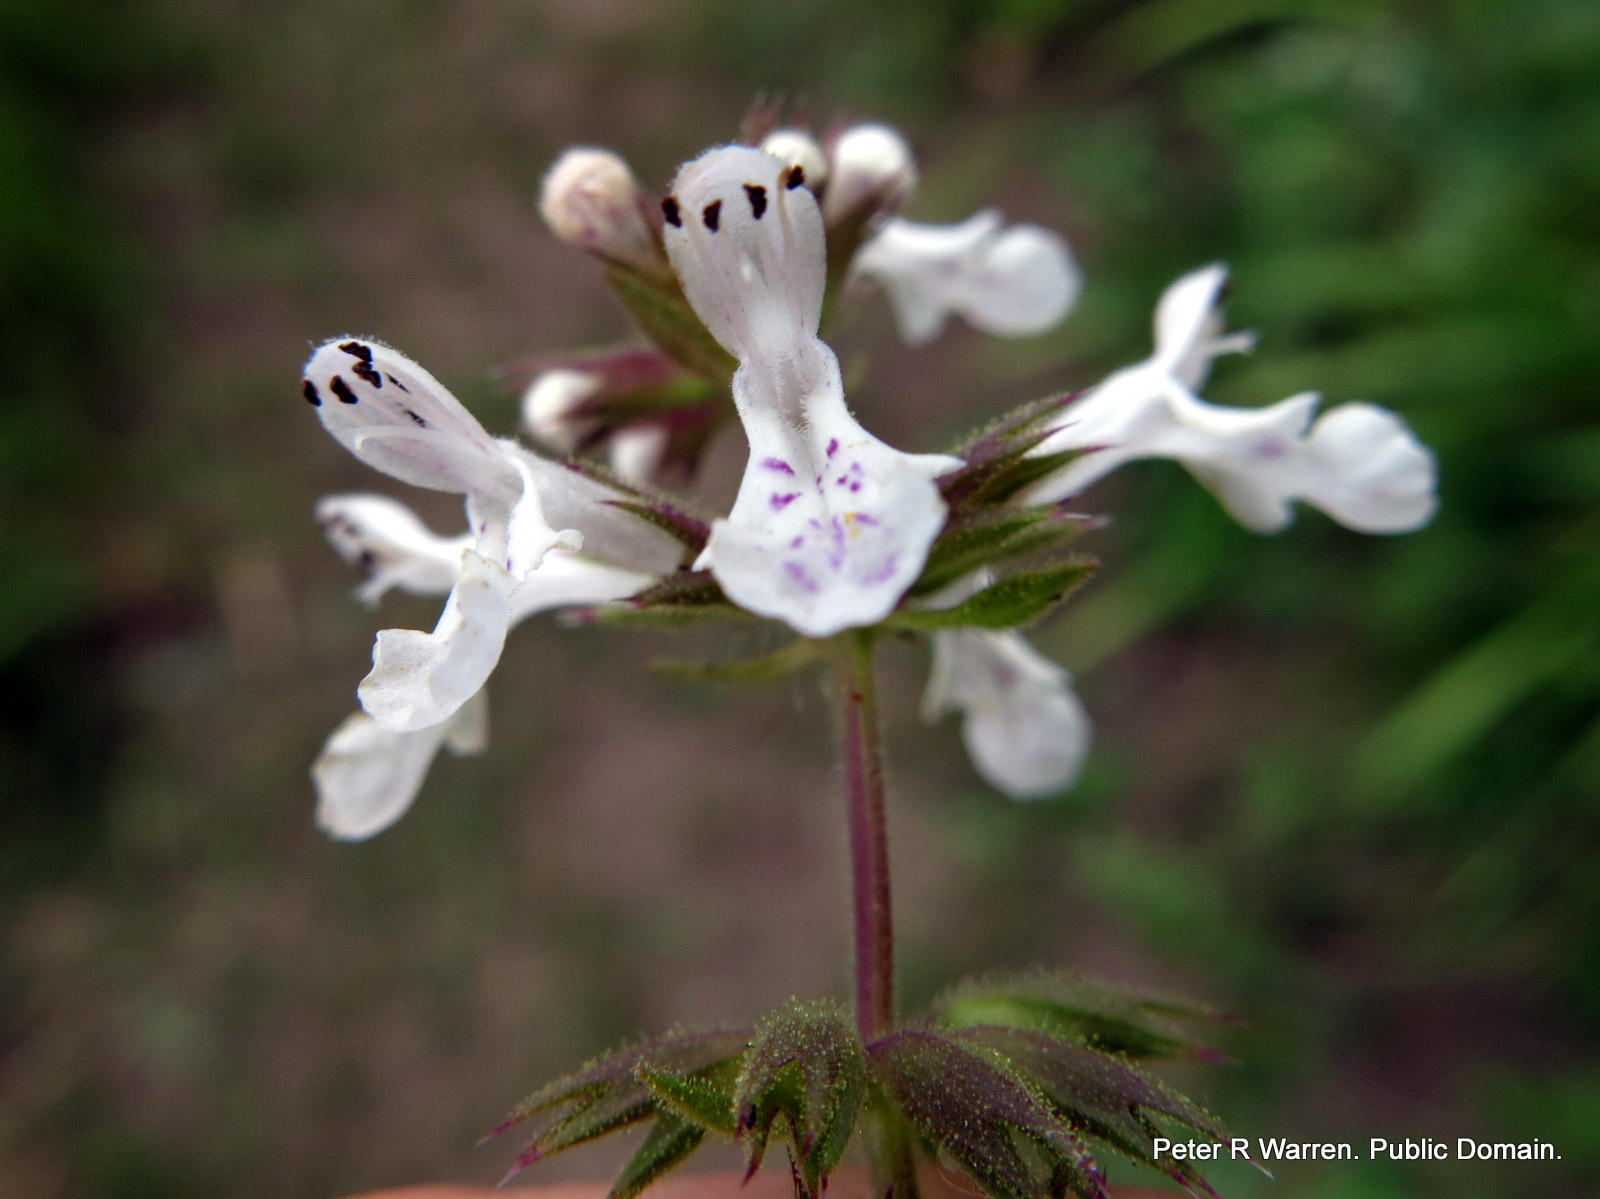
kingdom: Plantae
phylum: Tracheophyta
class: Magnoliopsida
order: Lamiales
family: Lamiaceae
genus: Stachys
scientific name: Stachys aethiopica
